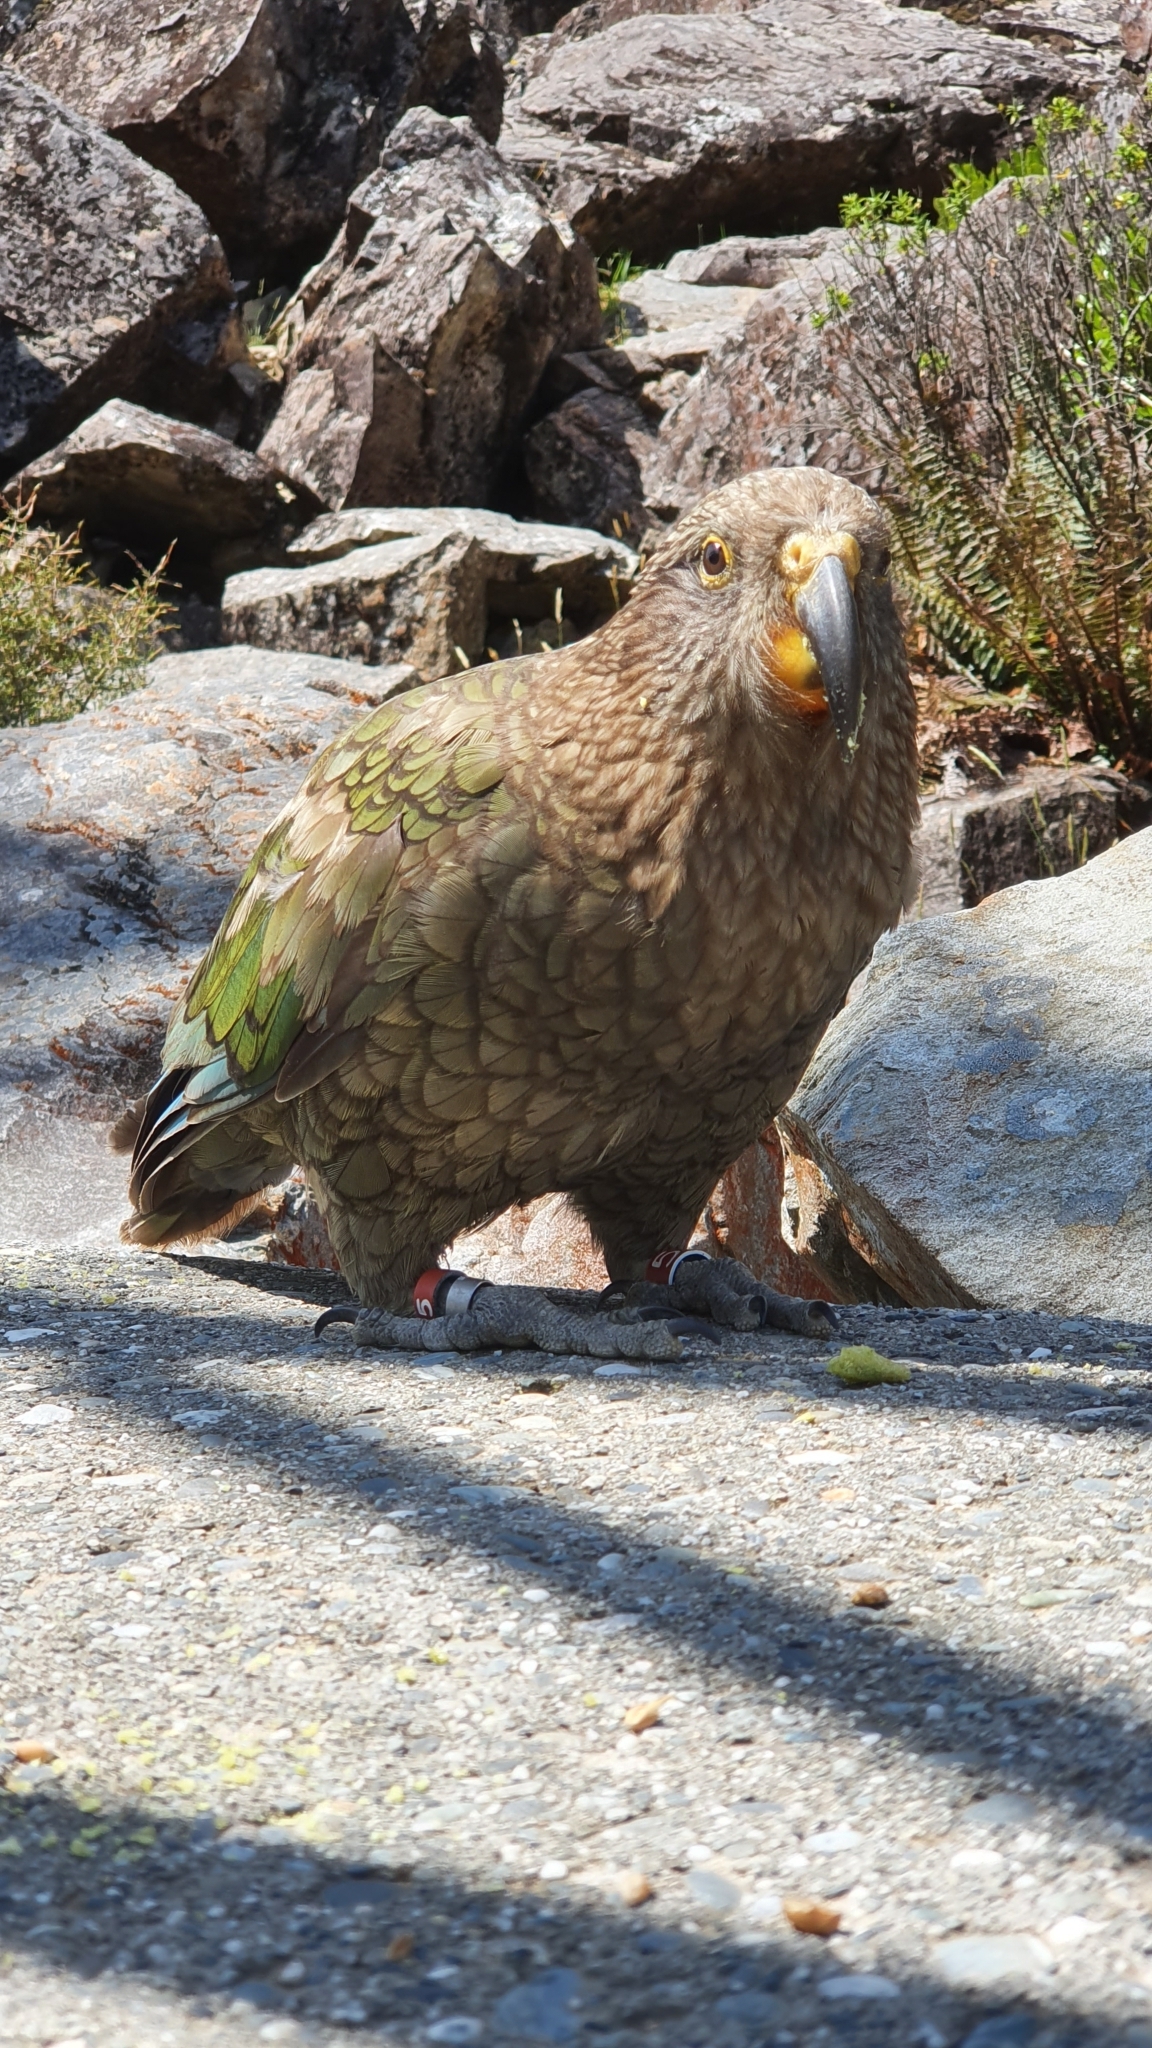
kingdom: Animalia
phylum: Chordata
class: Aves
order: Psittaciformes
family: Psittacidae
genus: Nestor
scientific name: Nestor notabilis
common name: Kea
